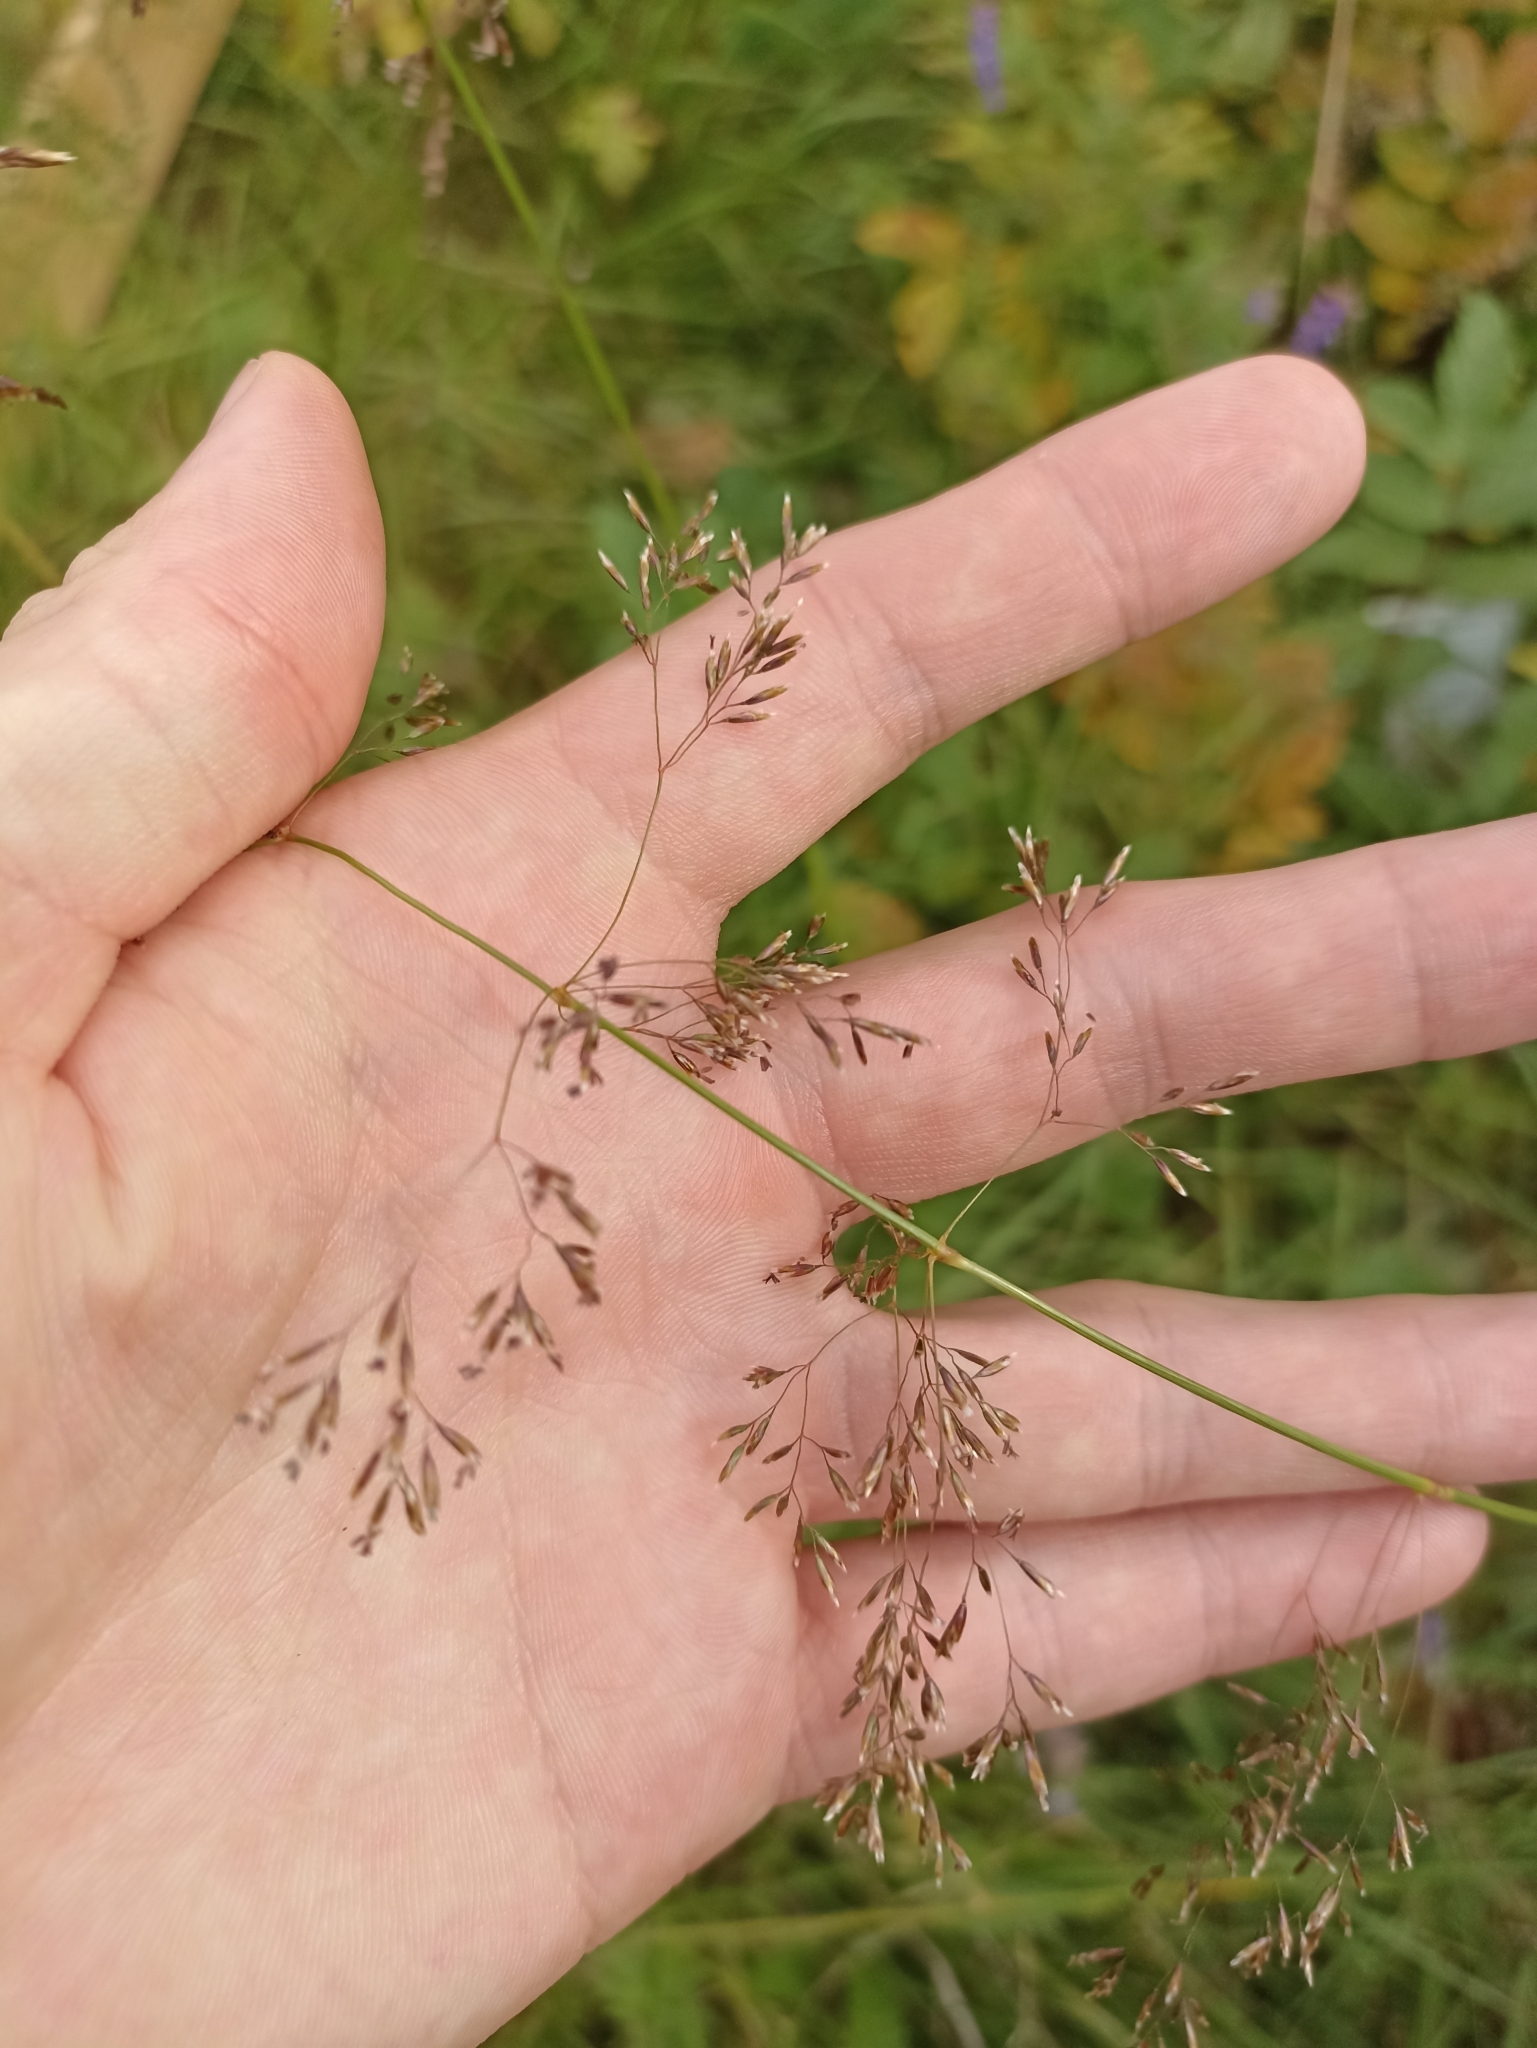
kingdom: Plantae
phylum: Tracheophyta
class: Liliopsida
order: Poales
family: Poaceae
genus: Deschampsia
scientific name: Deschampsia cespitosa
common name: Tufted hair-grass
